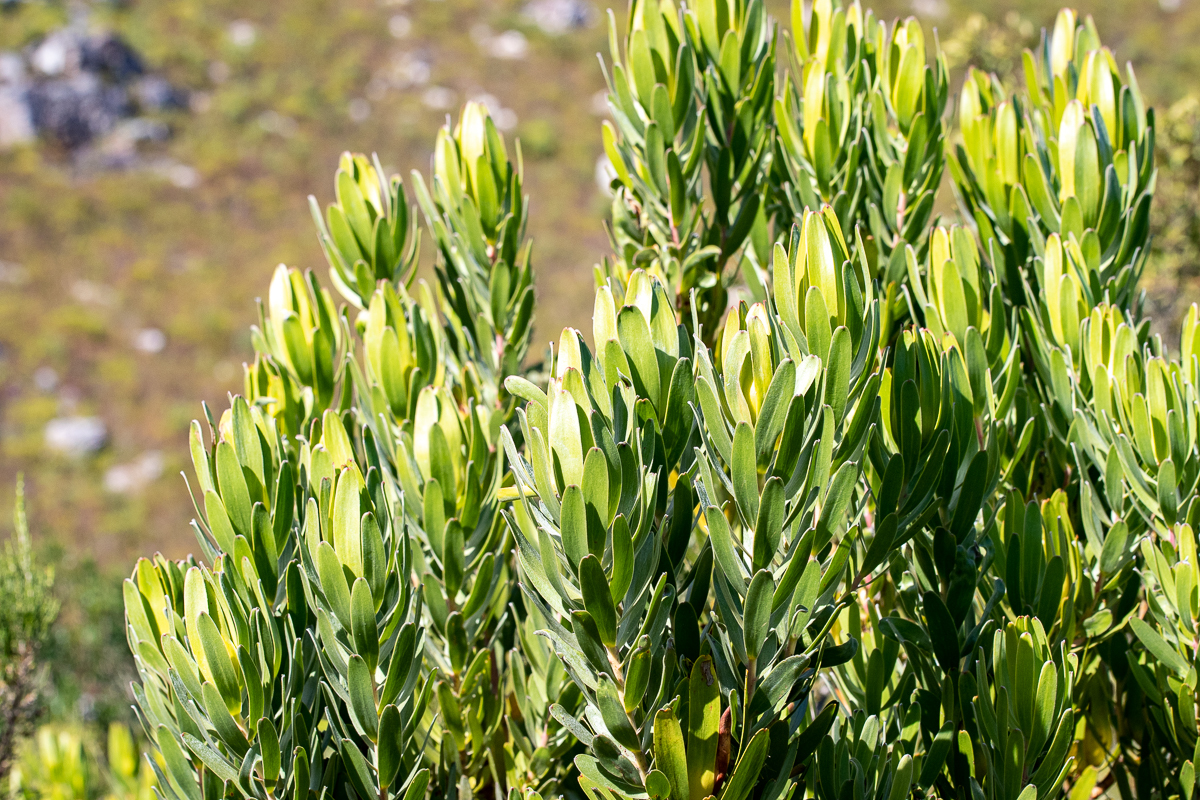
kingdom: Plantae
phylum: Tracheophyta
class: Magnoliopsida
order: Proteales
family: Proteaceae
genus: Leucadendron
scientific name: Leucadendron laureolum
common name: Golden sunshinebush
